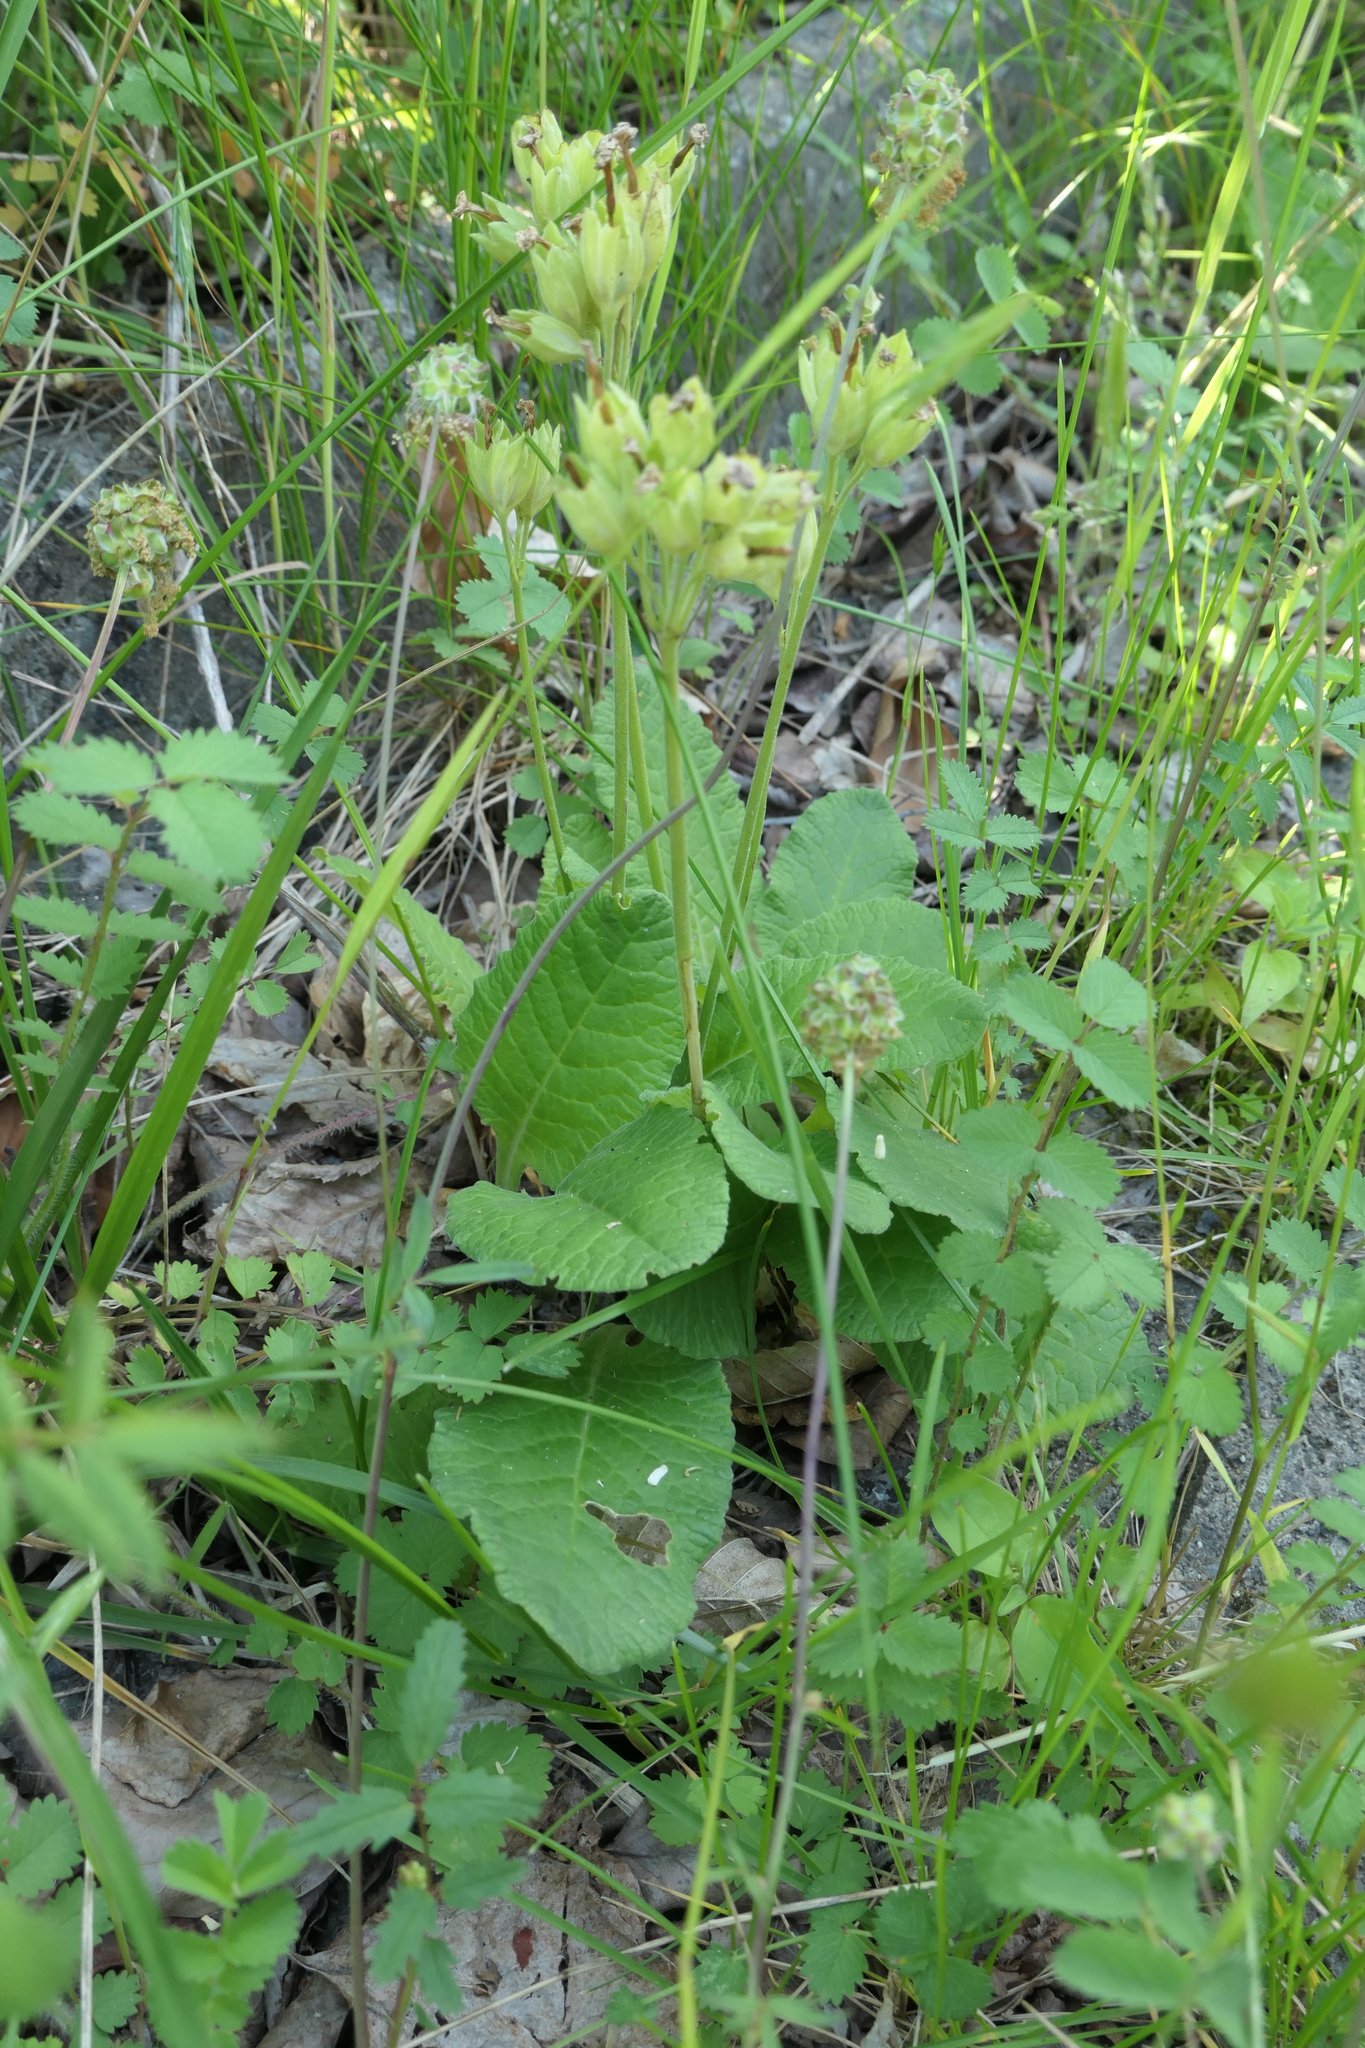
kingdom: Plantae
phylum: Tracheophyta
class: Magnoliopsida
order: Ericales
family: Primulaceae
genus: Primula
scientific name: Primula veris
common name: Cowslip
